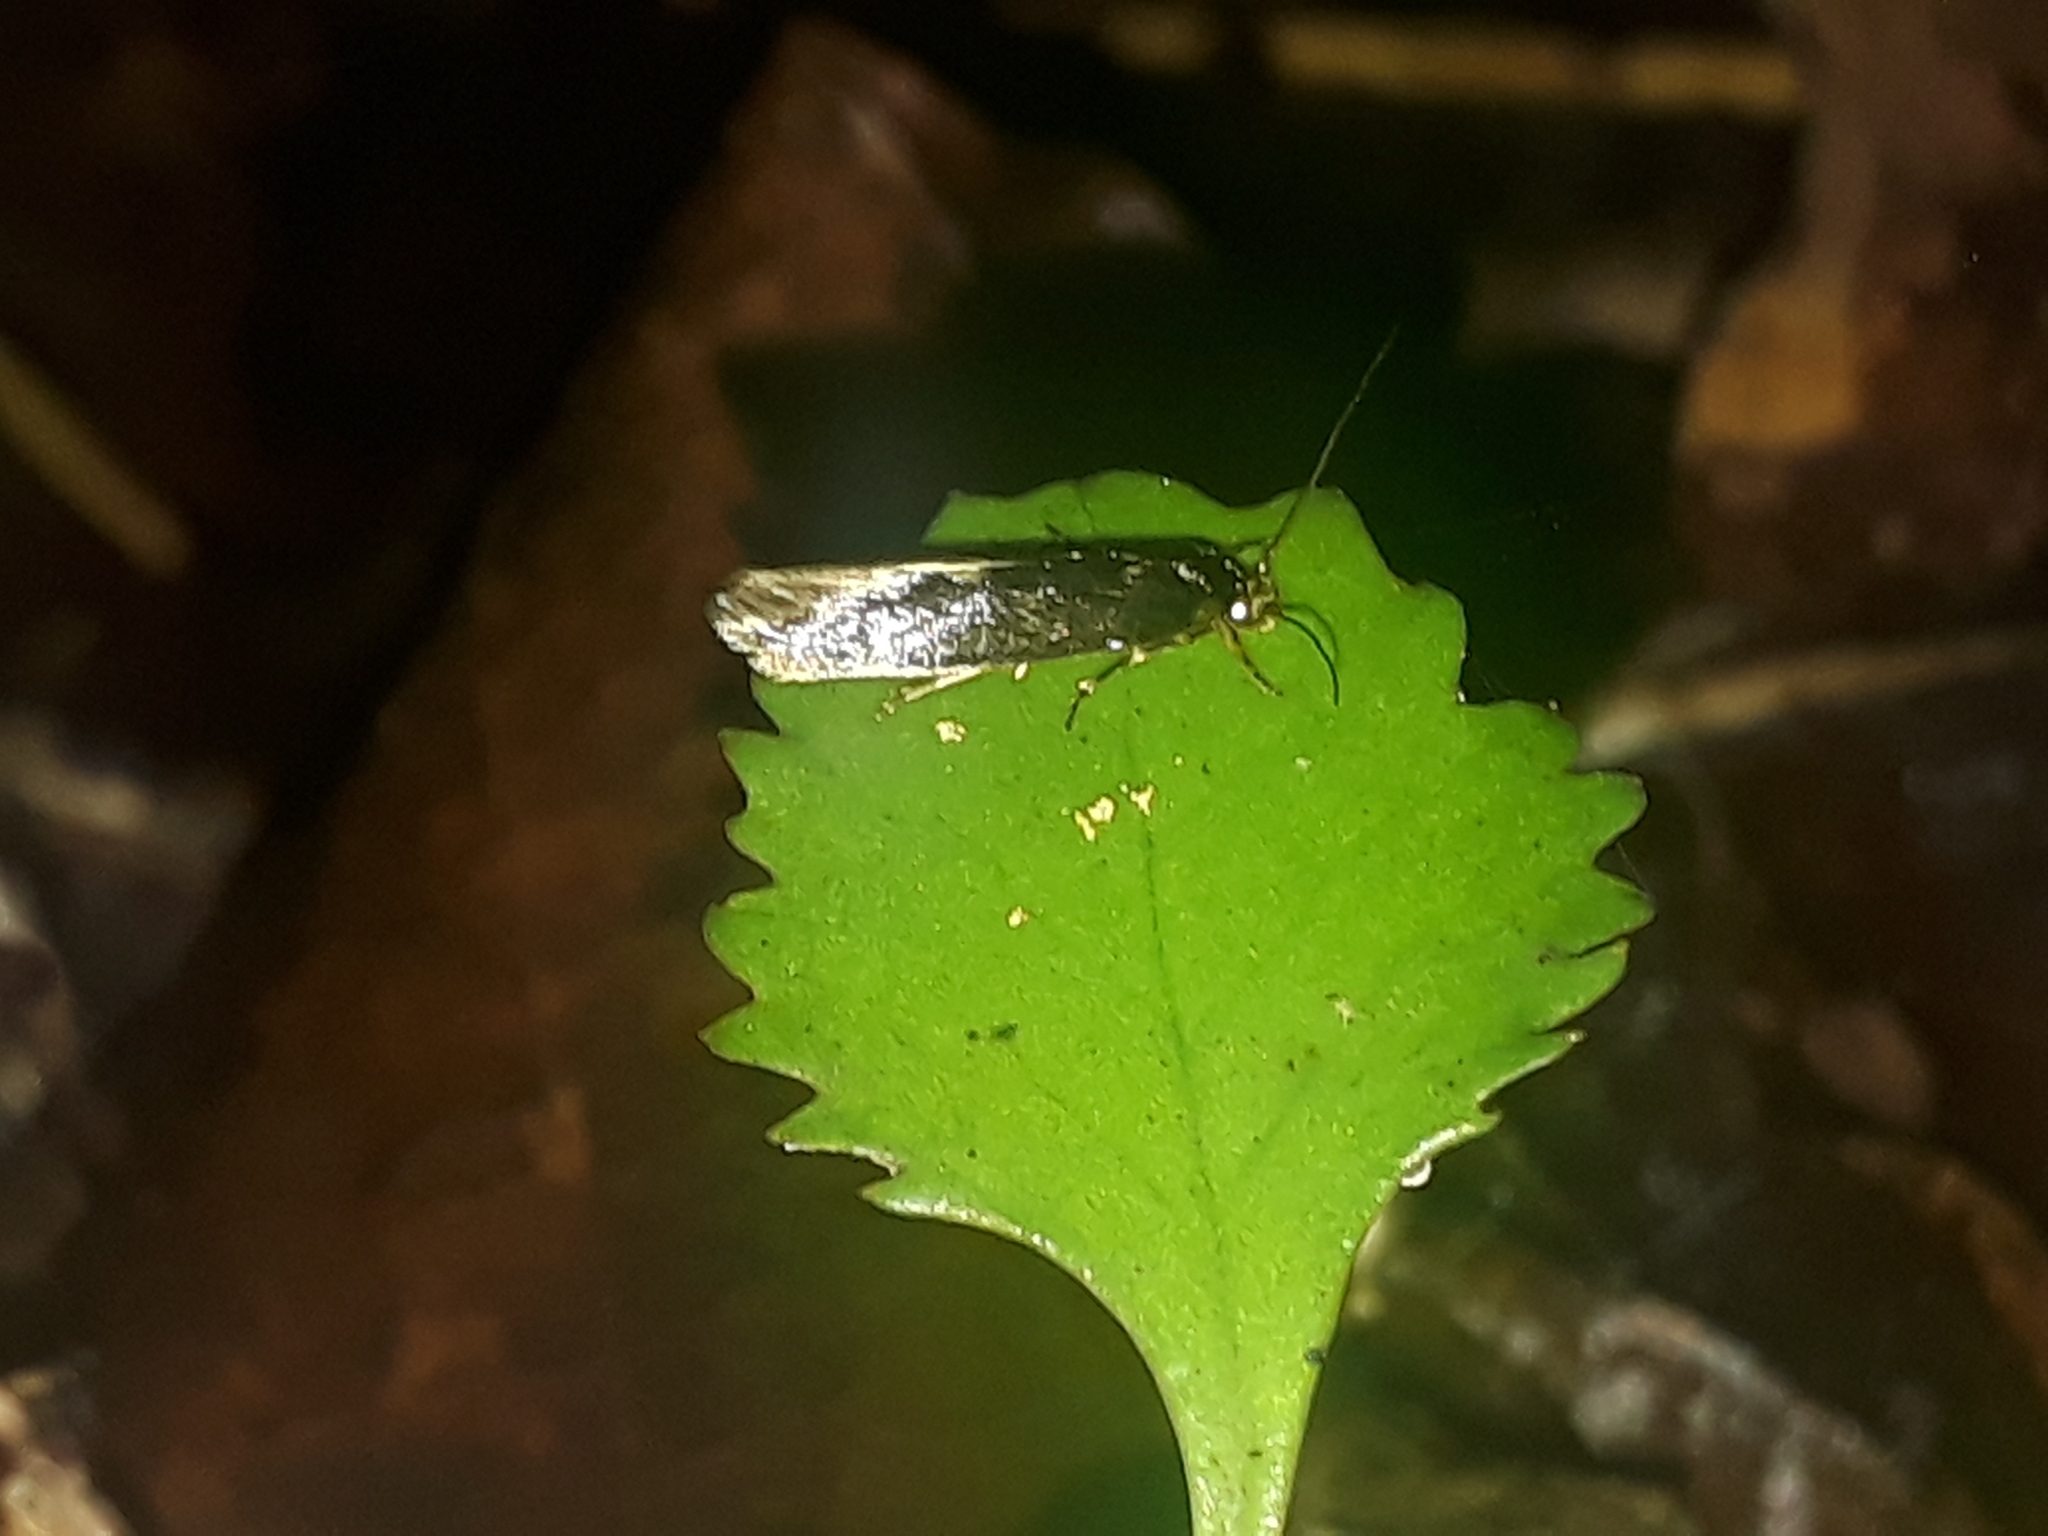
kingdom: Animalia
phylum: Arthropoda
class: Insecta
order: Lepidoptera
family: Tineidae
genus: Opogona
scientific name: Opogona omoscopa
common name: Moth
